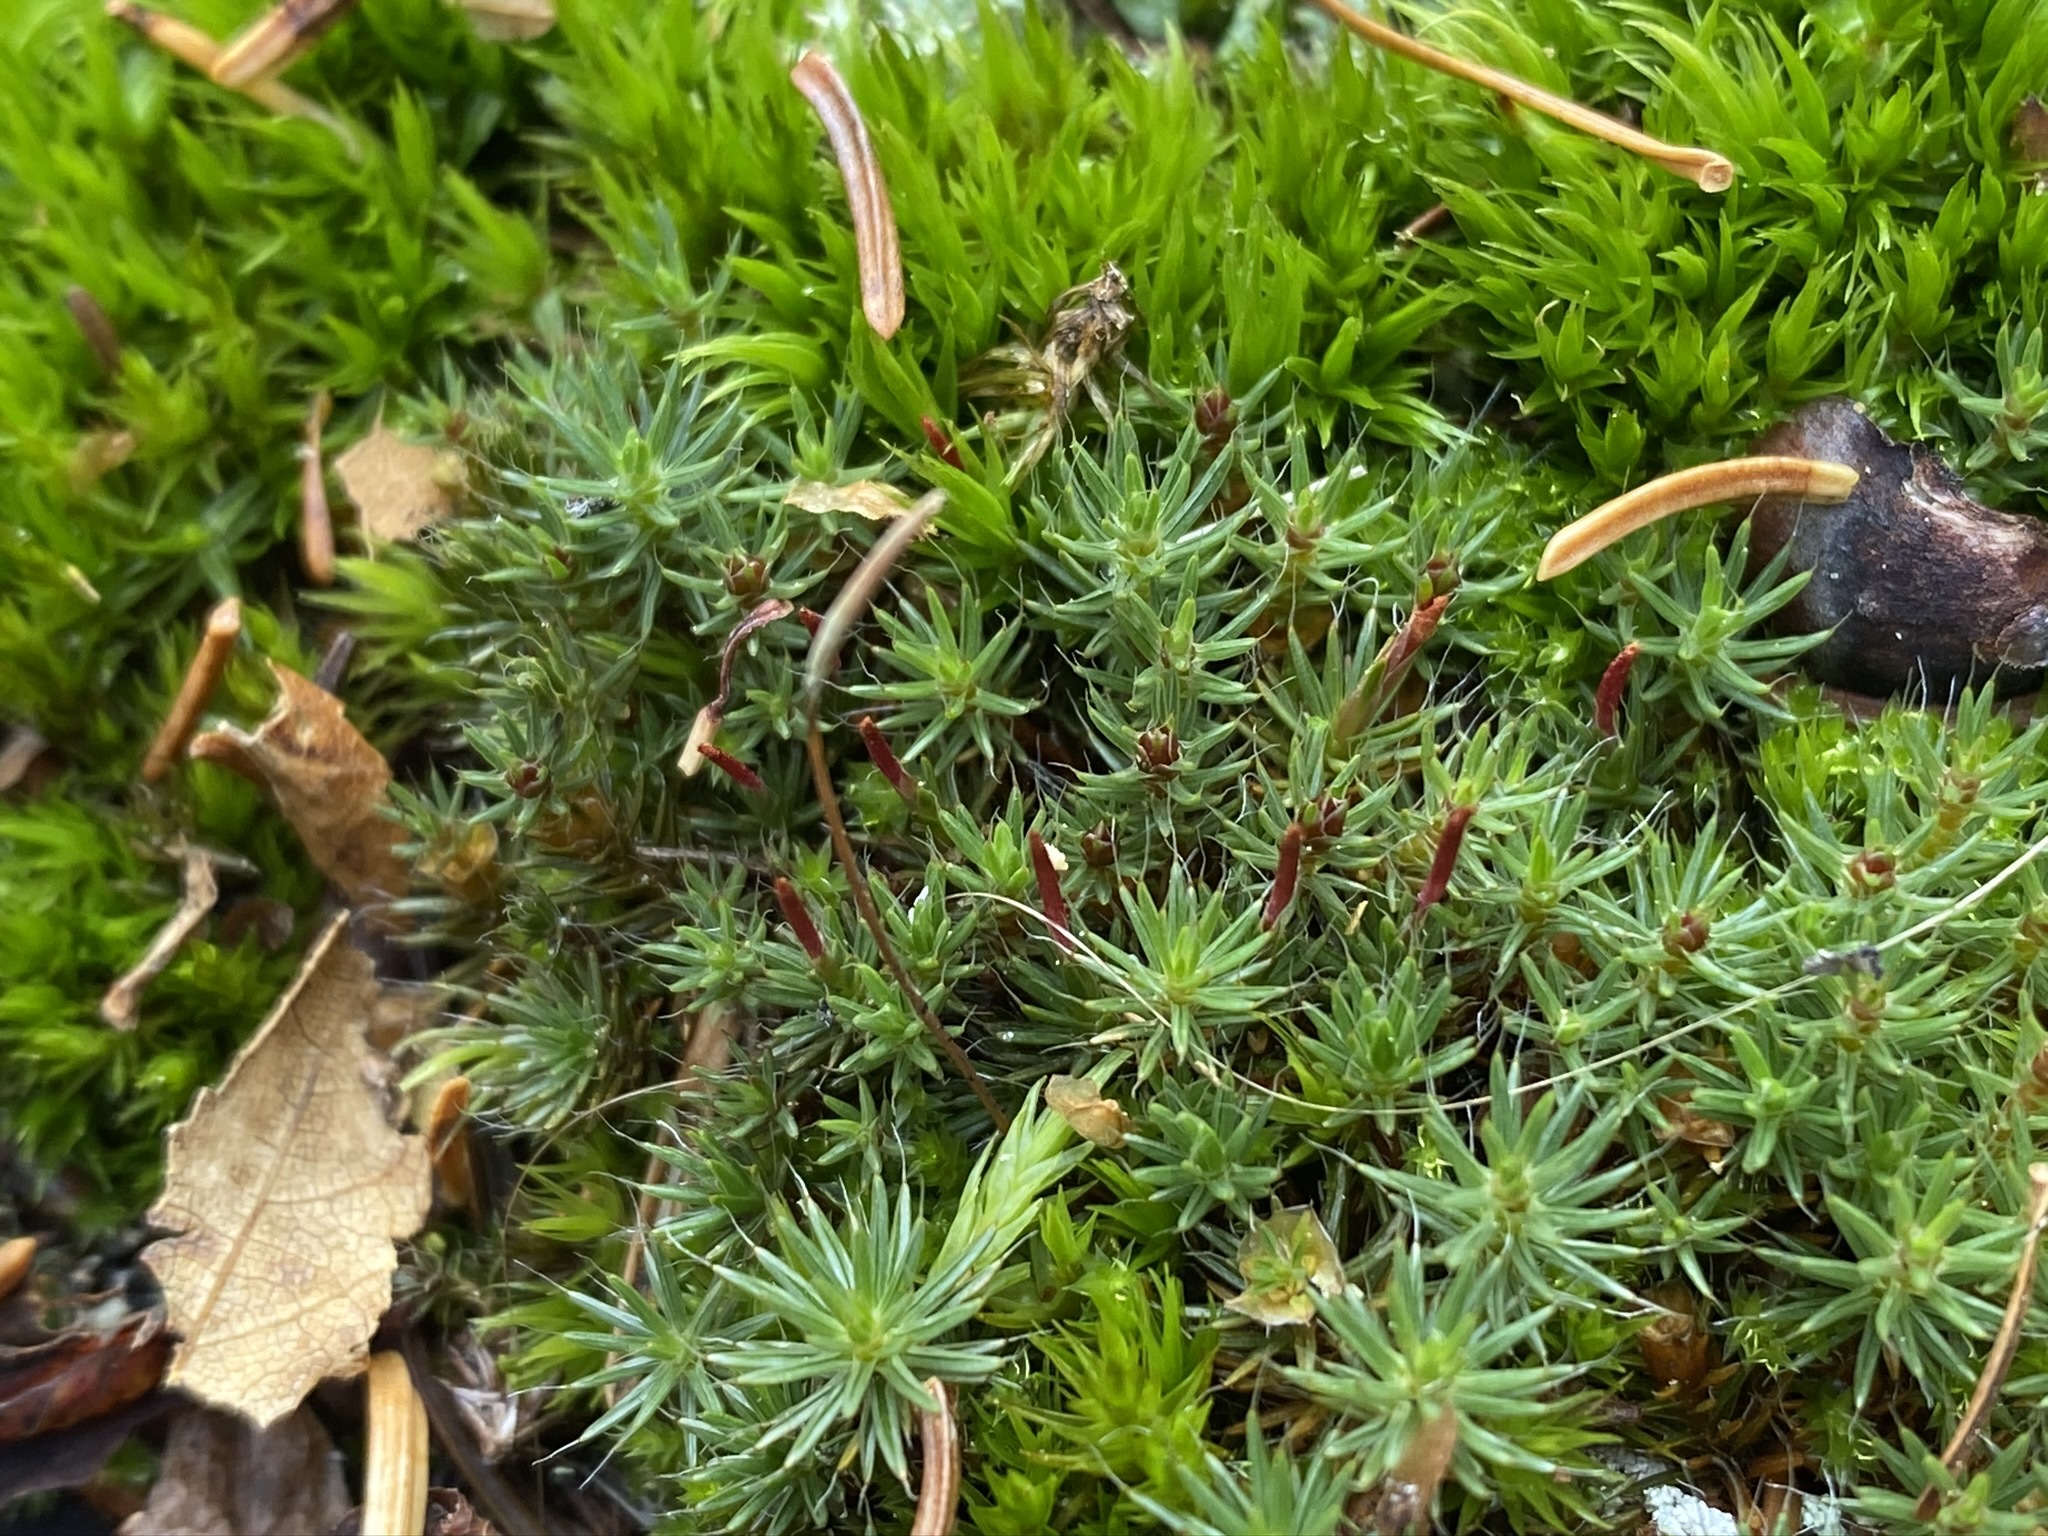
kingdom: Plantae
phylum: Bryophyta
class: Polytrichopsida
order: Polytrichales
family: Polytrichaceae
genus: Polytrichum
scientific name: Polytrichum piliferum
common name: Bristly haircap
